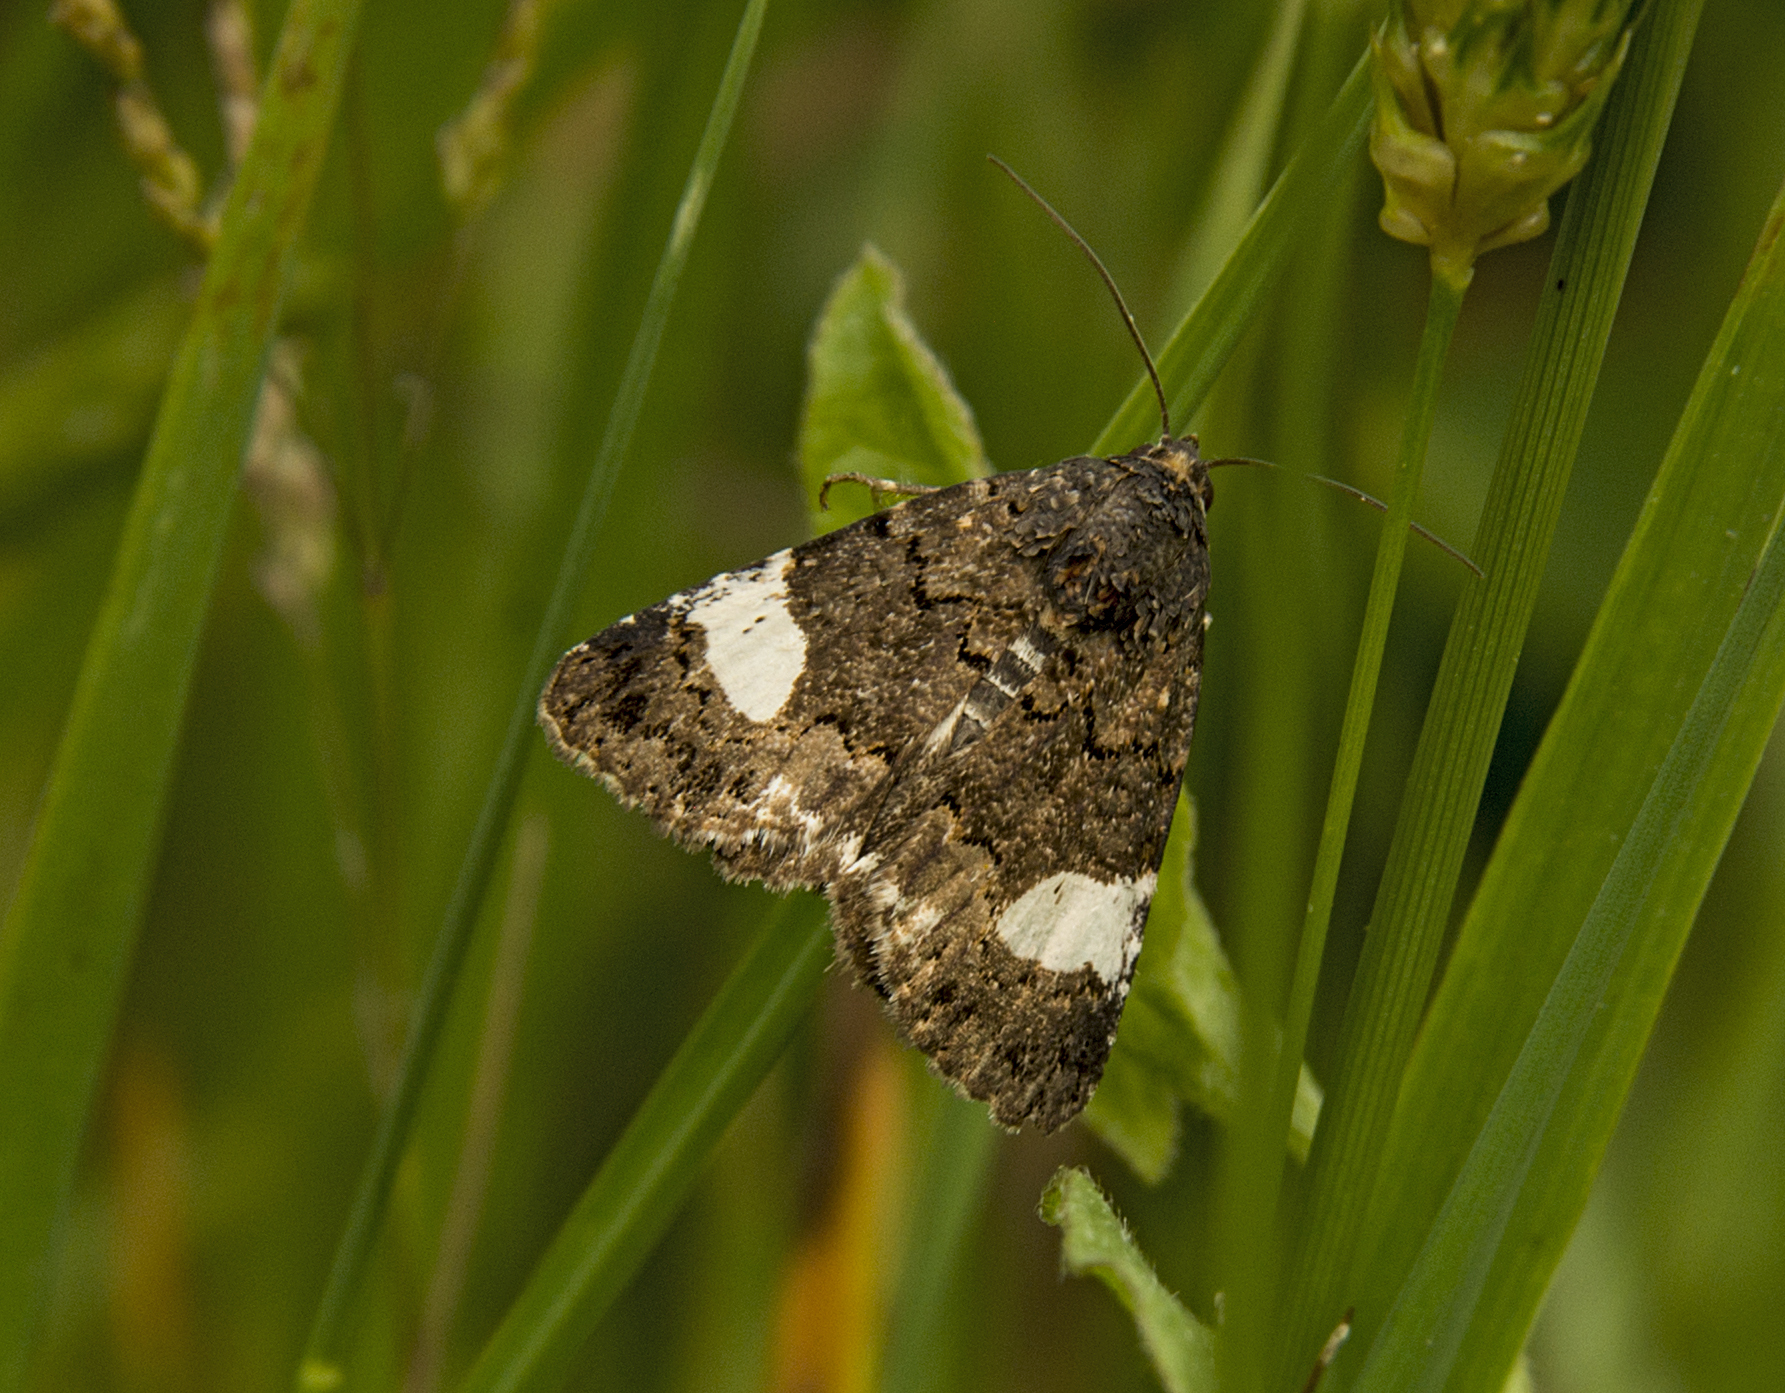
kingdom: Animalia
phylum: Arthropoda
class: Insecta
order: Lepidoptera
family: Erebidae
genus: Tyta
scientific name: Tyta luctuosa
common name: Four-spotted
